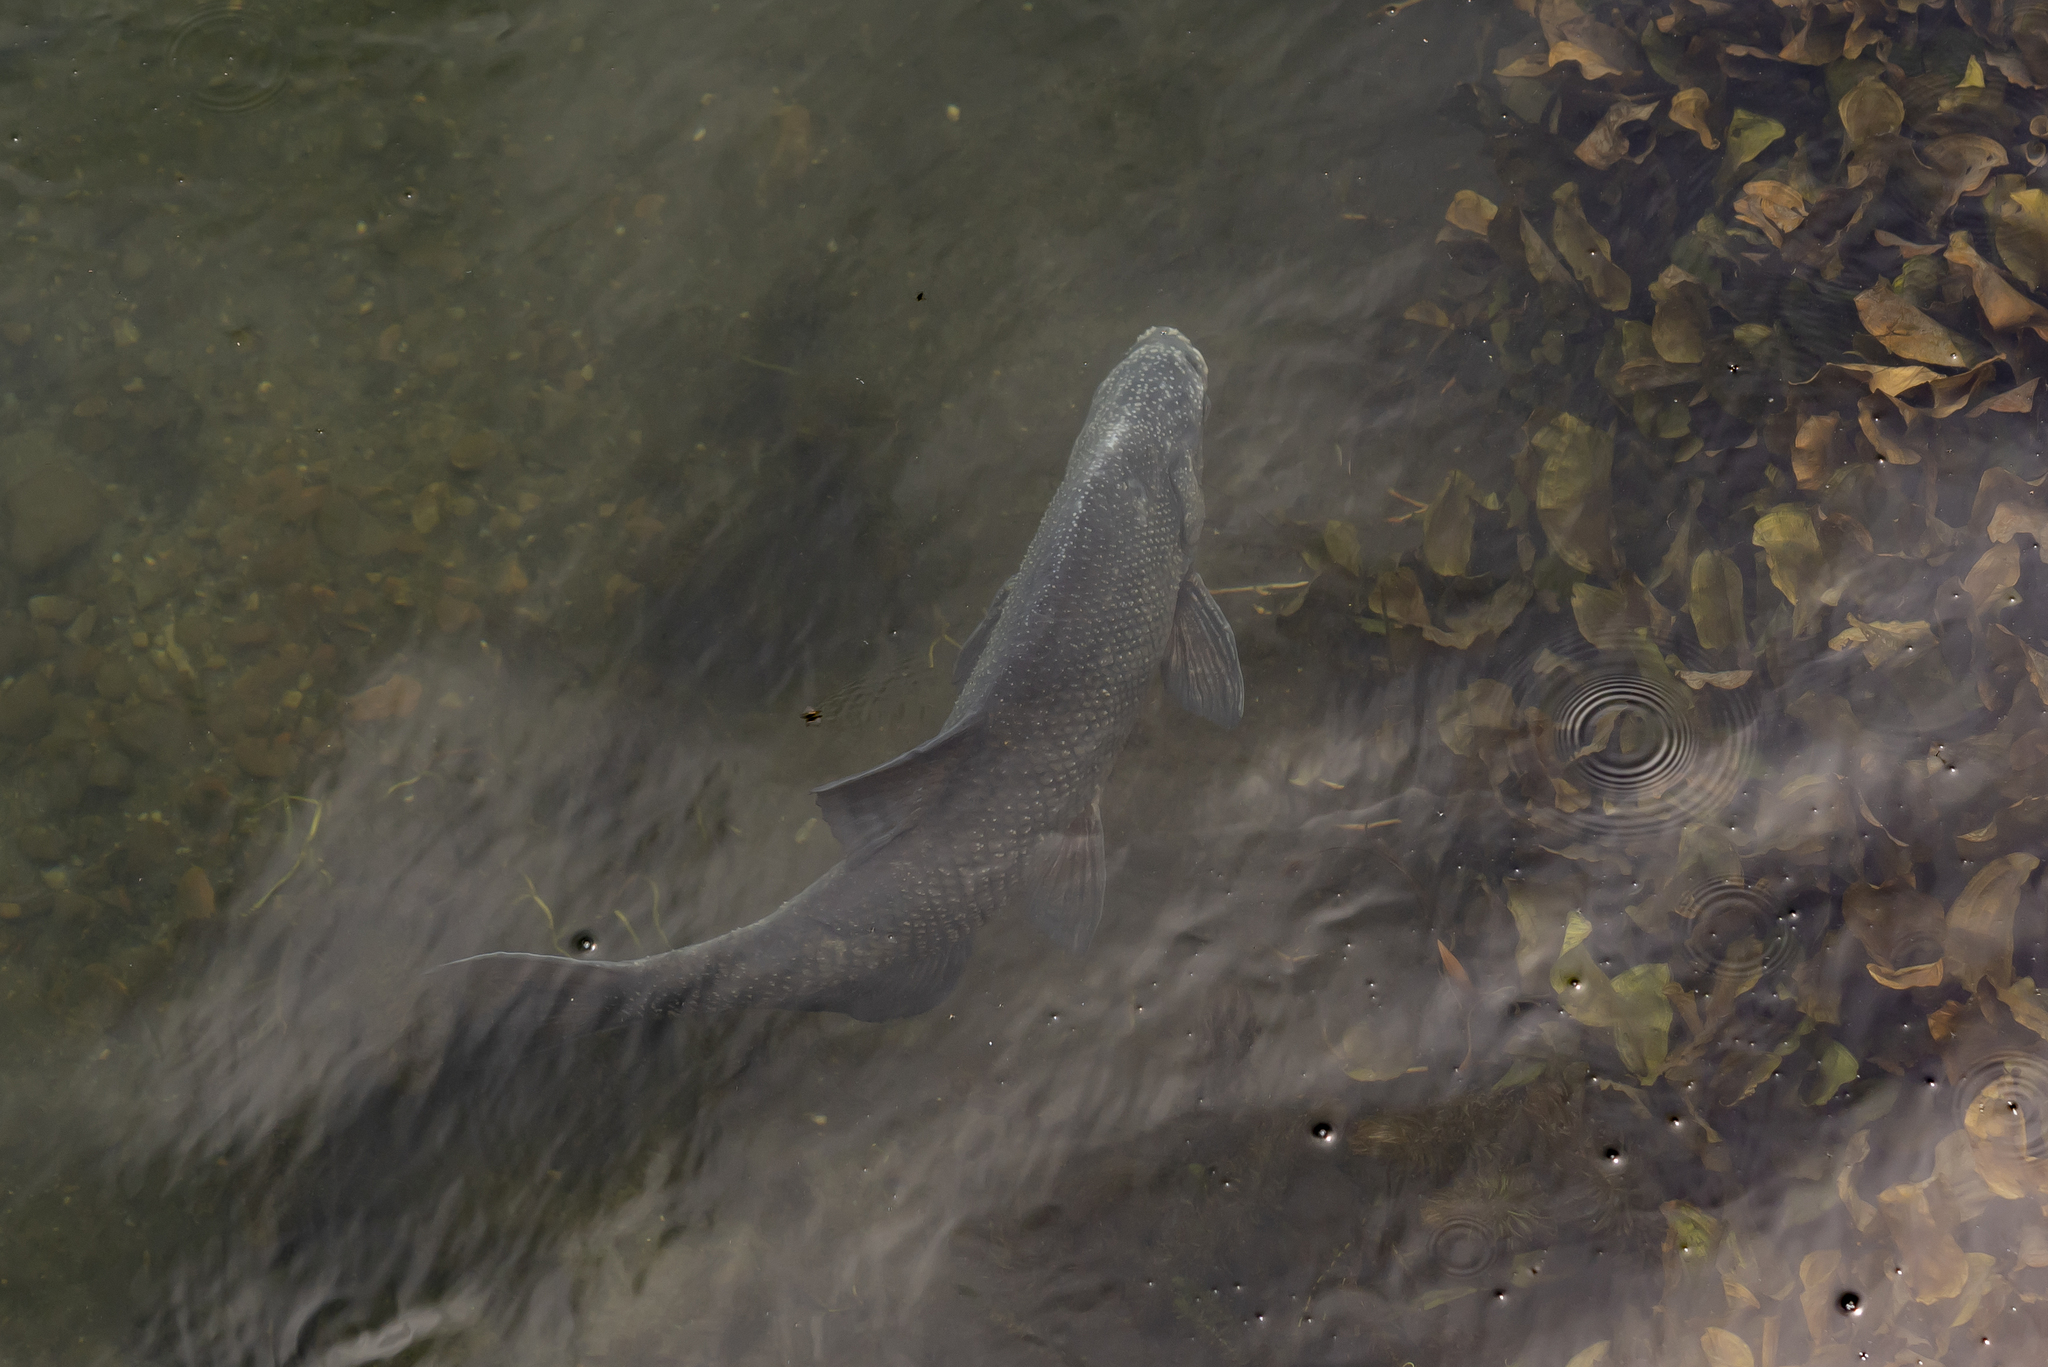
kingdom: Animalia
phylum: Chordata
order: Cypriniformes
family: Cyprinidae
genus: Abramis
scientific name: Abramis brama
